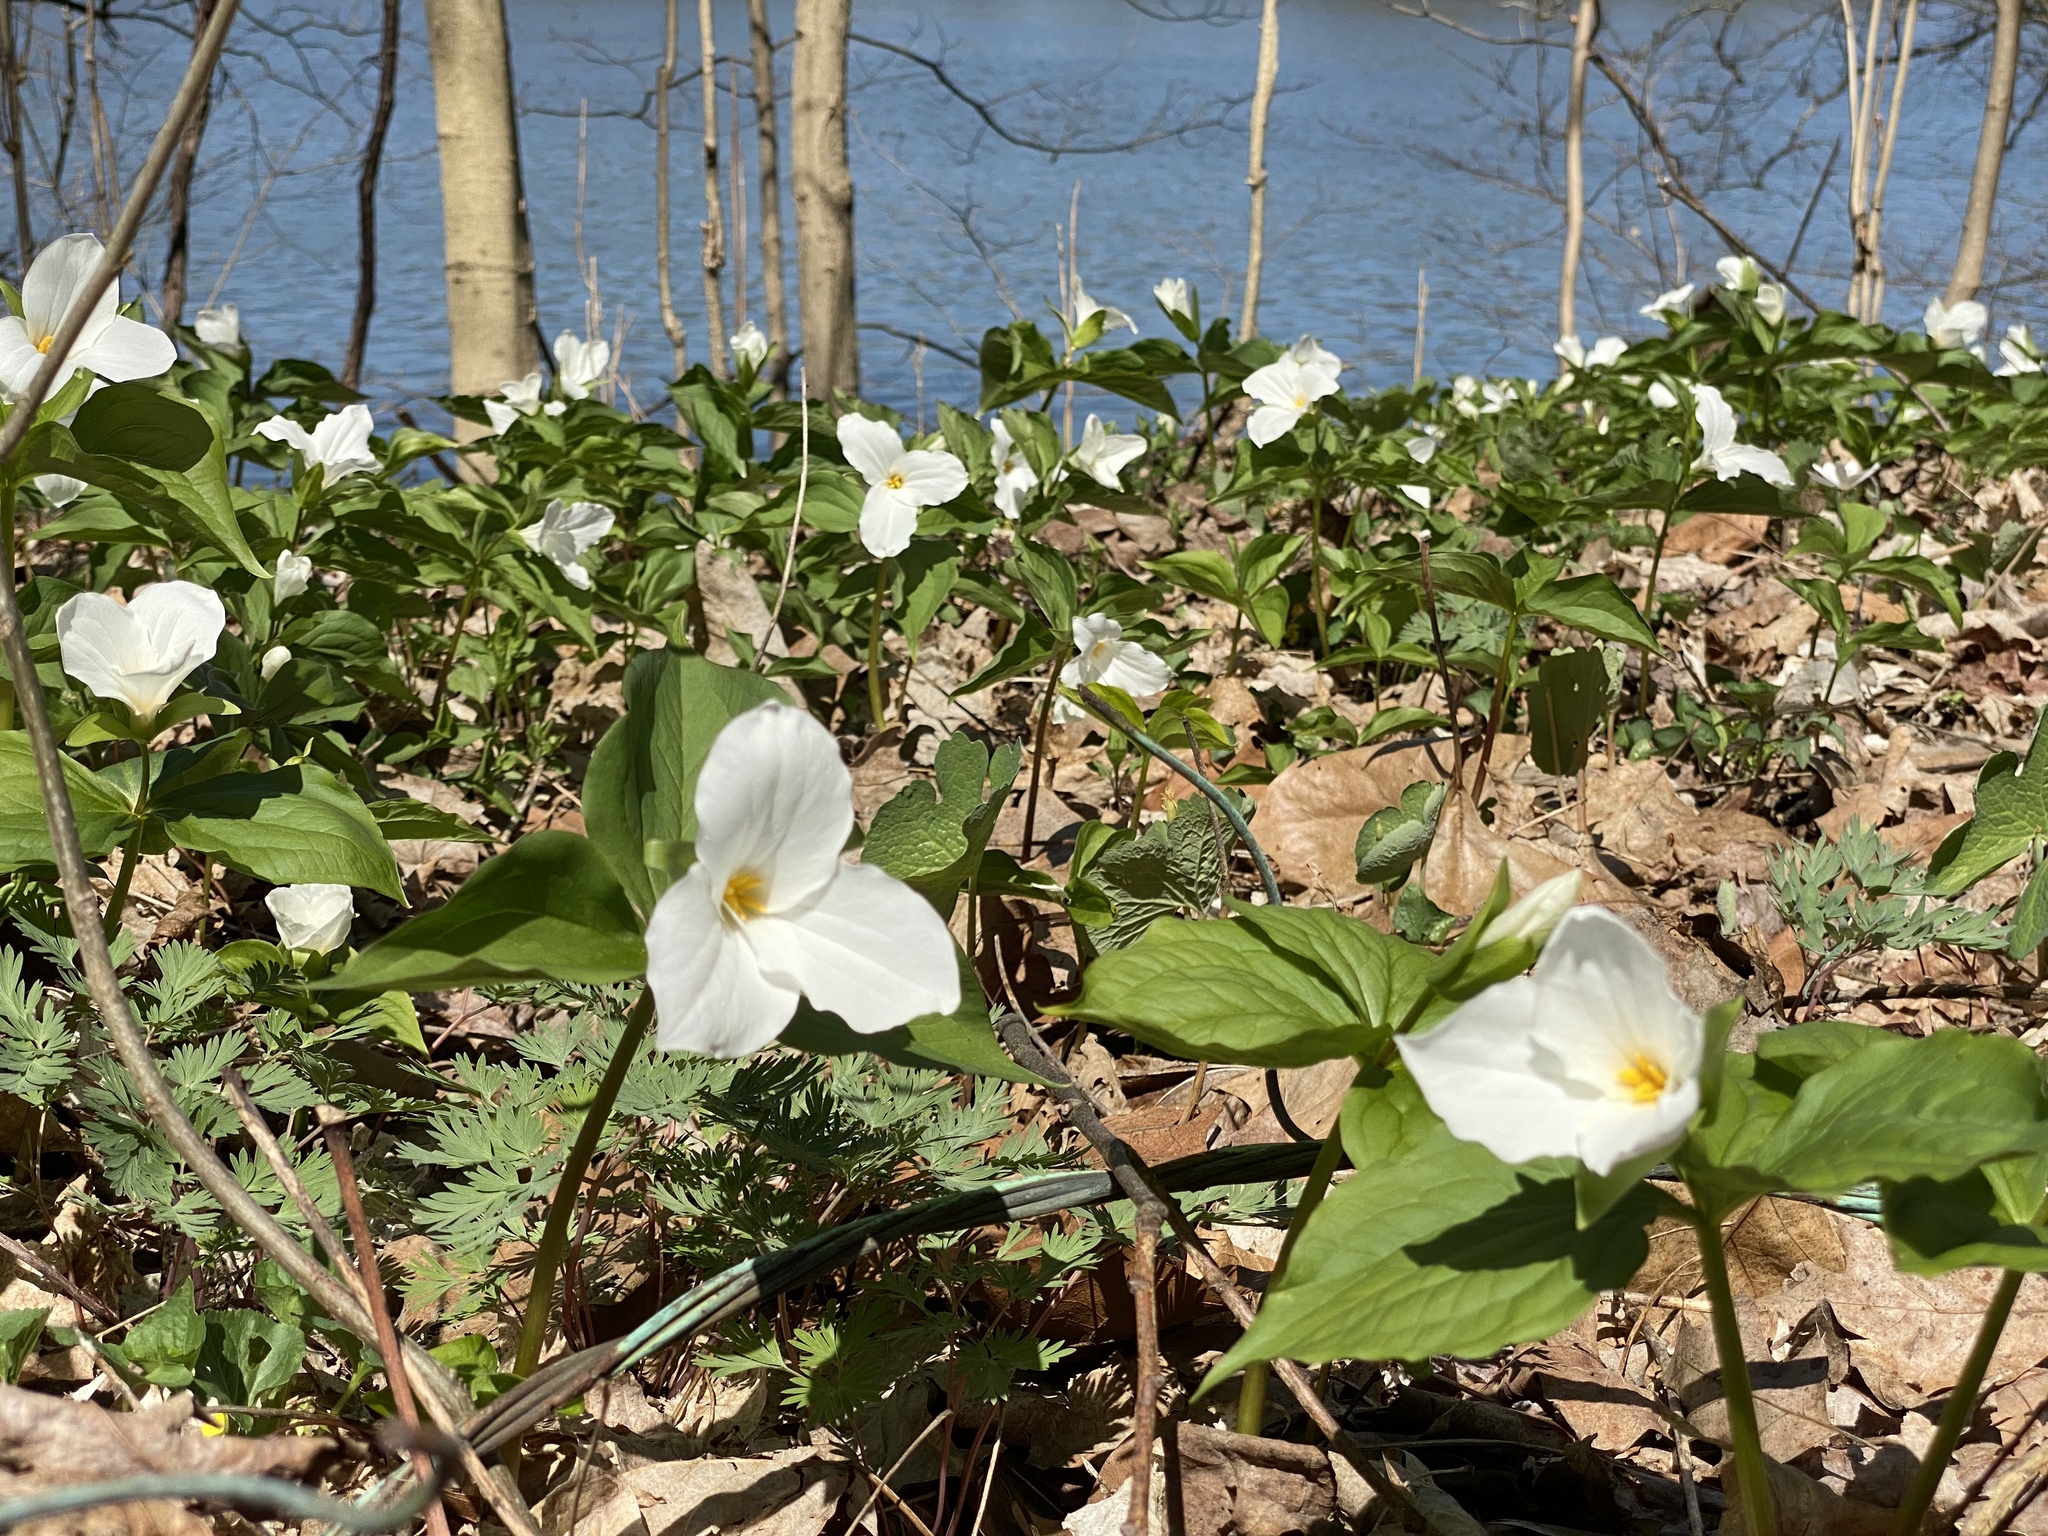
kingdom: Plantae
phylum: Tracheophyta
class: Liliopsida
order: Liliales
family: Melanthiaceae
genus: Trillium
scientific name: Trillium grandiflorum
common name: Great white trillium
